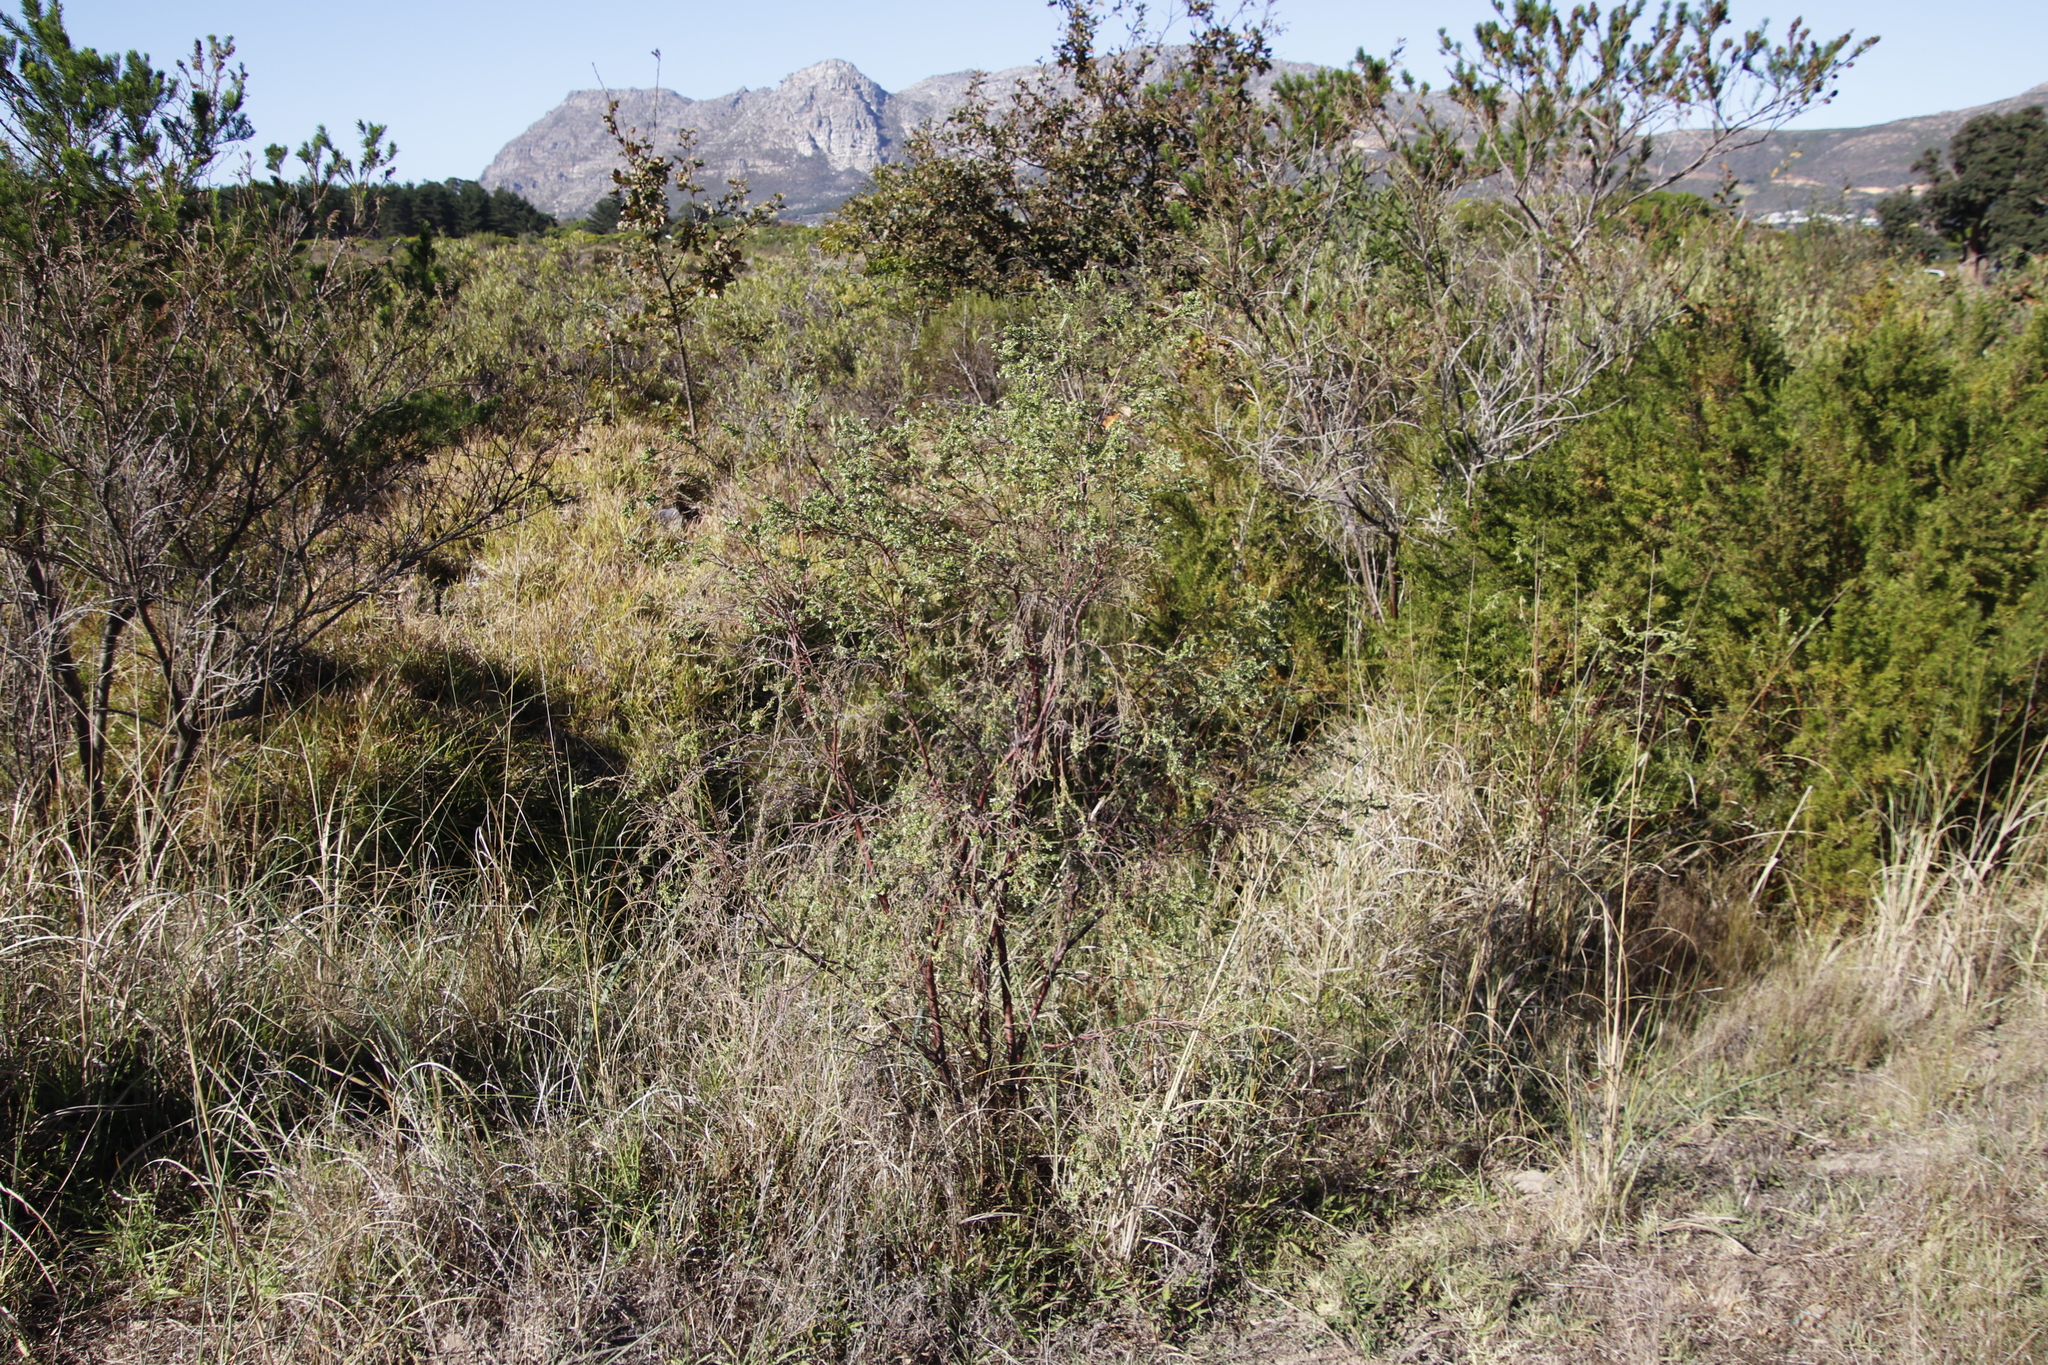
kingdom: Plantae
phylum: Tracheophyta
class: Magnoliopsida
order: Malvales
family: Thymelaeaceae
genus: Gnidia
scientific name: Gnidia sericea
